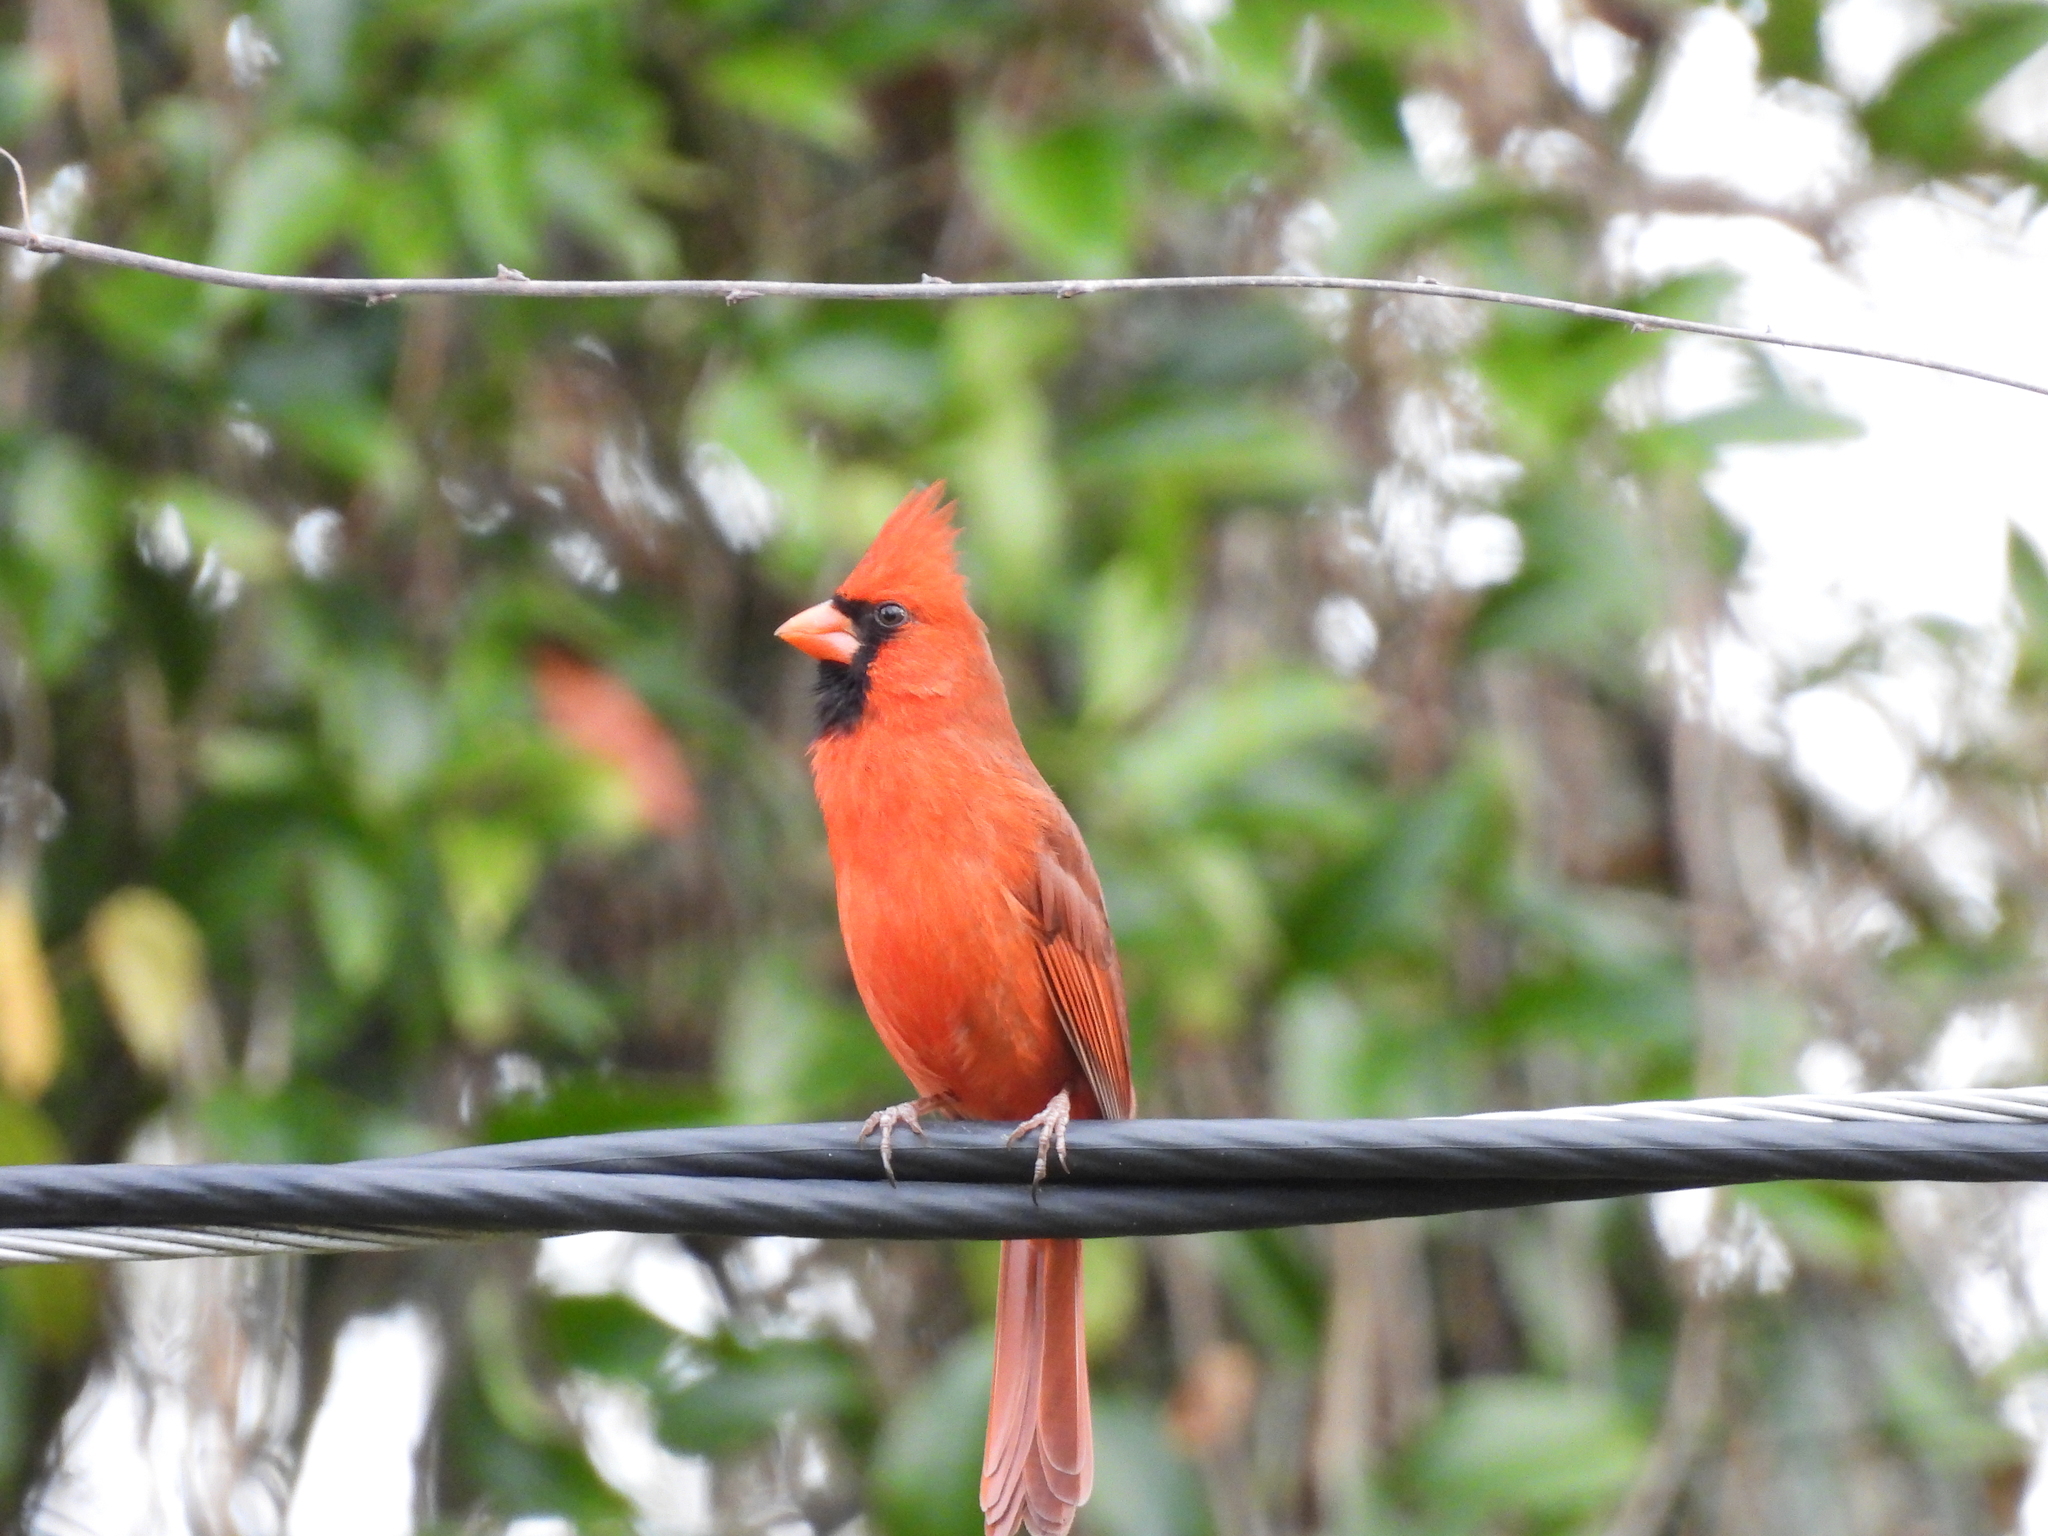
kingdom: Animalia
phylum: Chordata
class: Aves
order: Passeriformes
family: Cardinalidae
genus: Cardinalis
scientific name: Cardinalis cardinalis
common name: Northern cardinal
